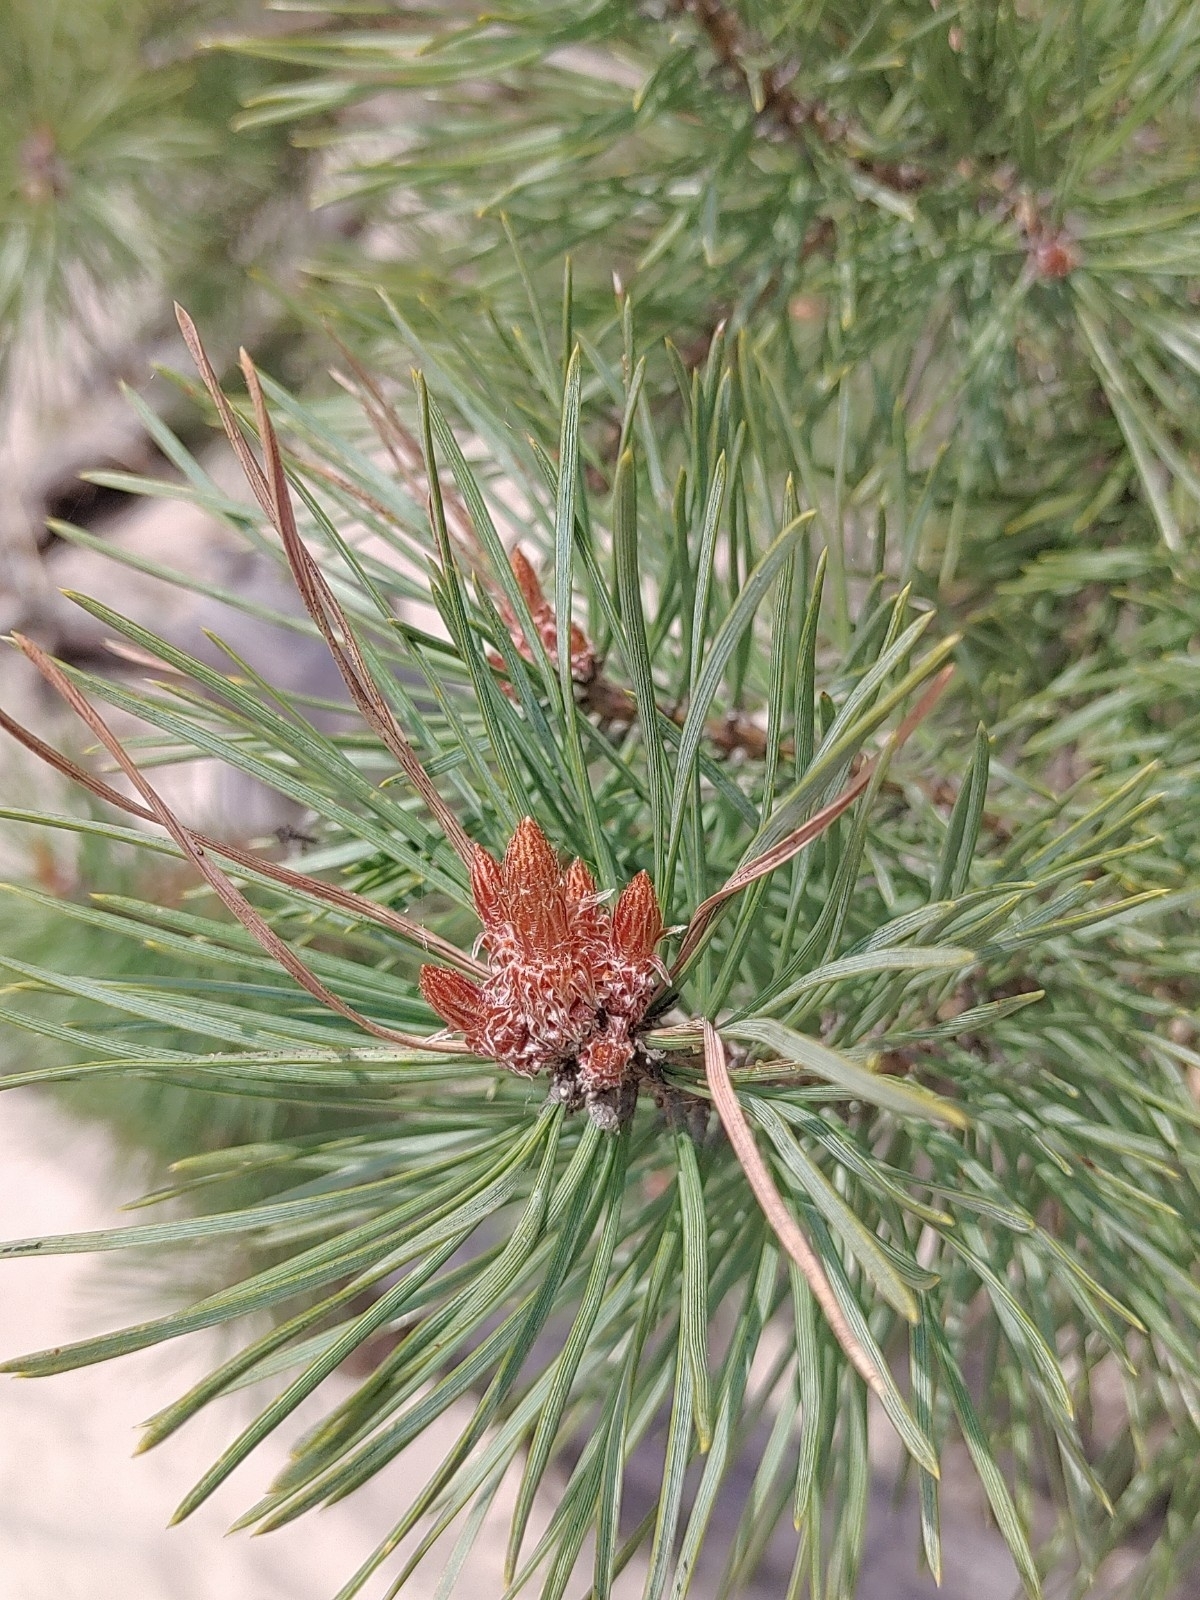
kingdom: Plantae
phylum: Tracheophyta
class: Pinopsida
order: Pinales
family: Pinaceae
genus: Pinus
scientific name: Pinus sylvestris
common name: Scots pine
